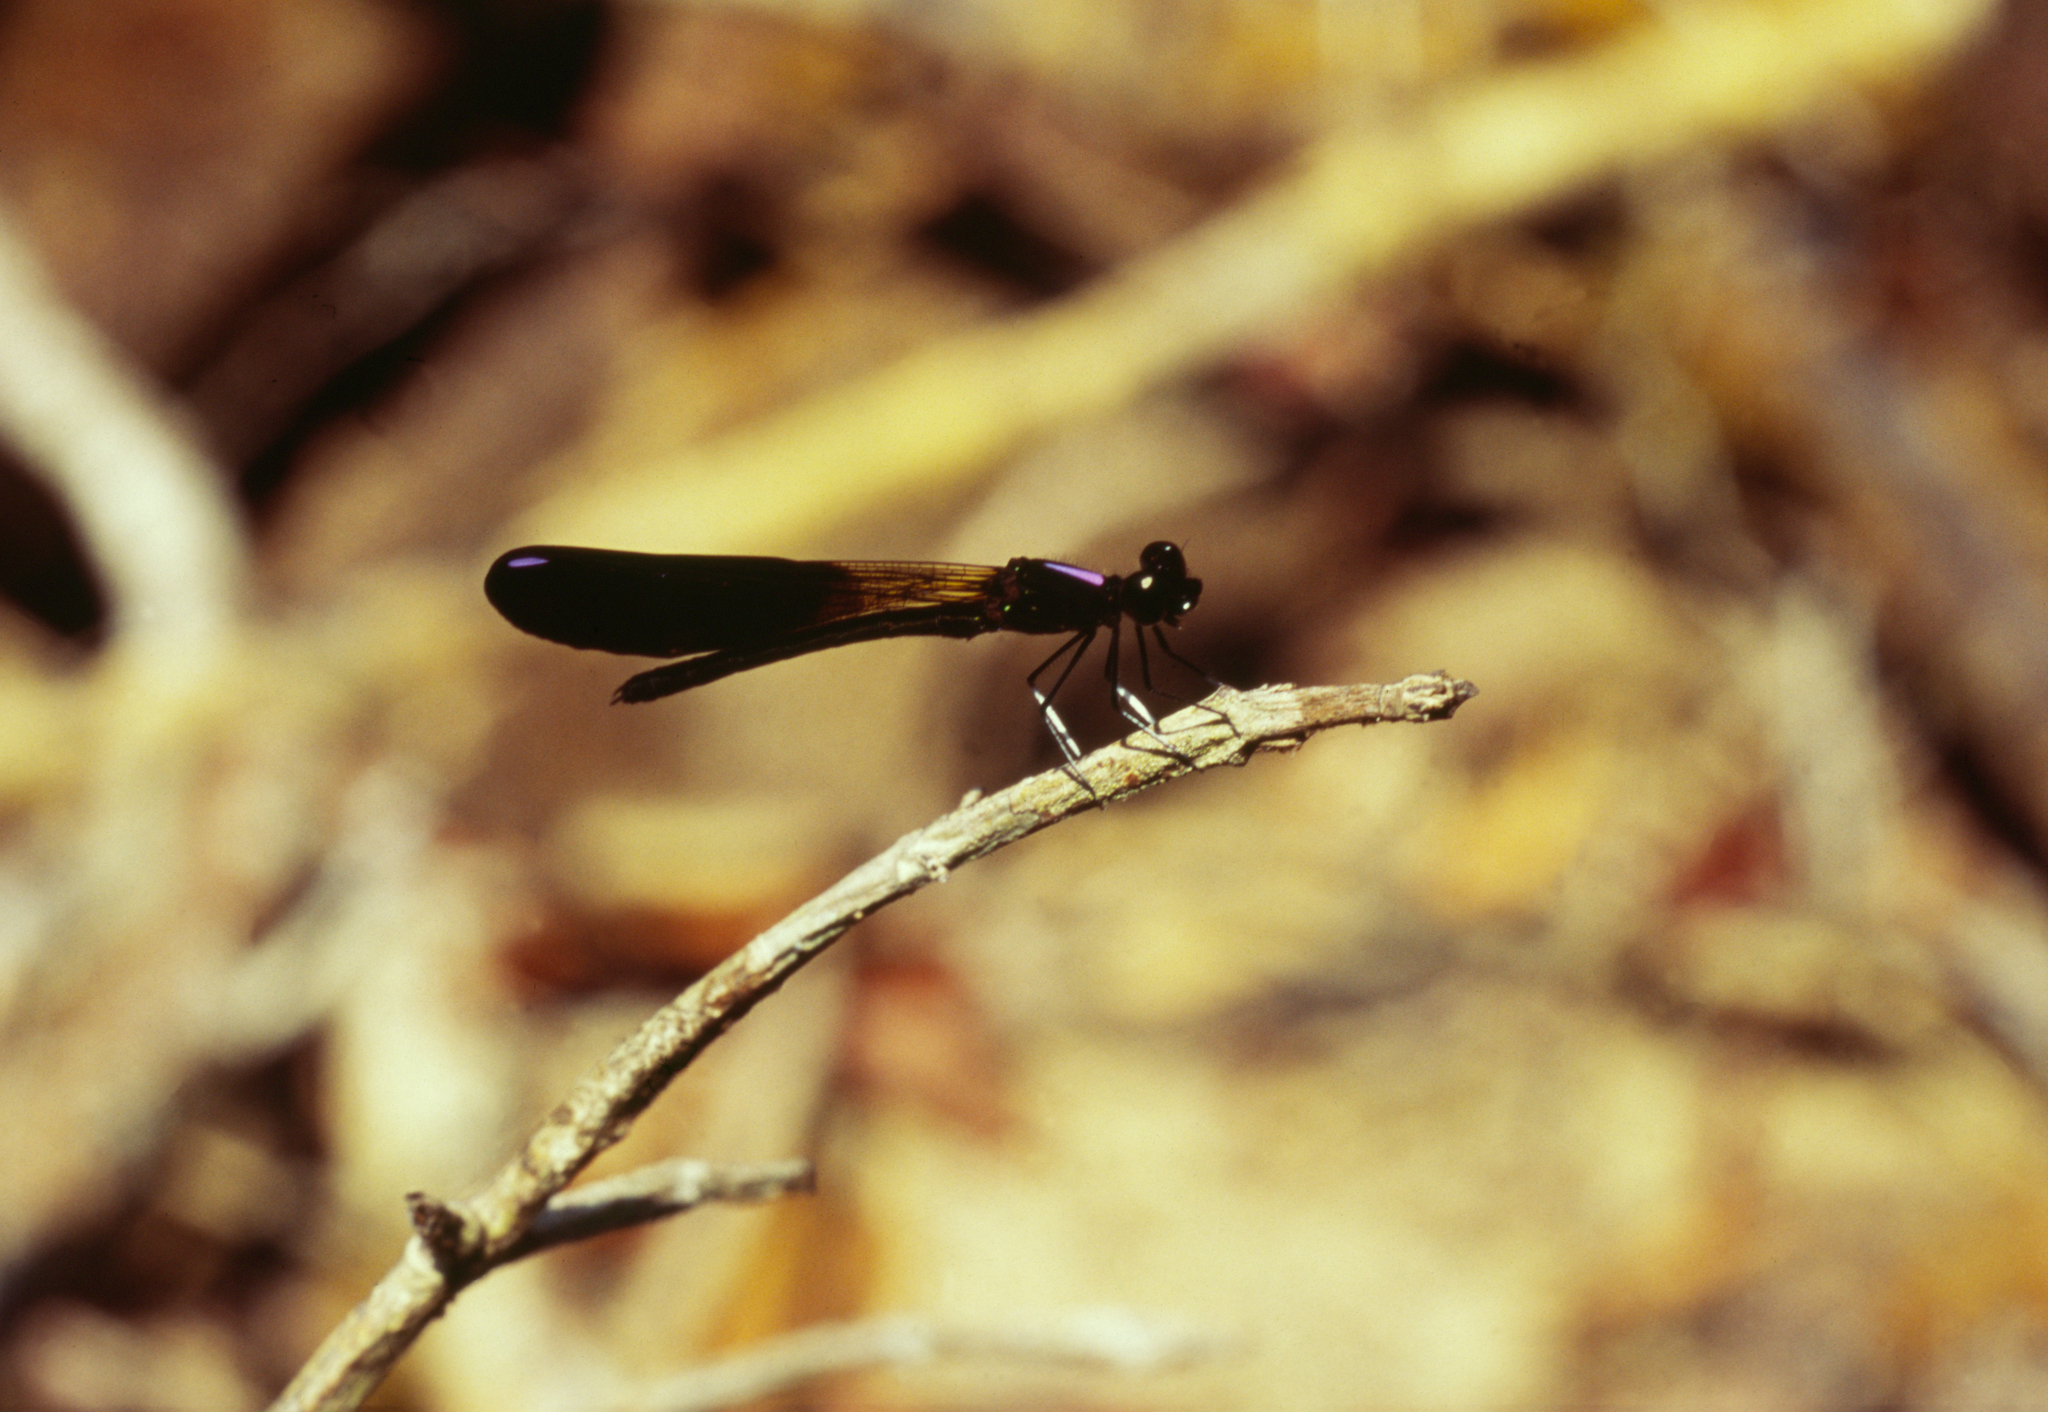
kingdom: Animalia
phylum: Arthropoda
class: Insecta
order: Odonata
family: Chlorocyphidae
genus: Aristocypha
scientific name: Aristocypha fenestrella
